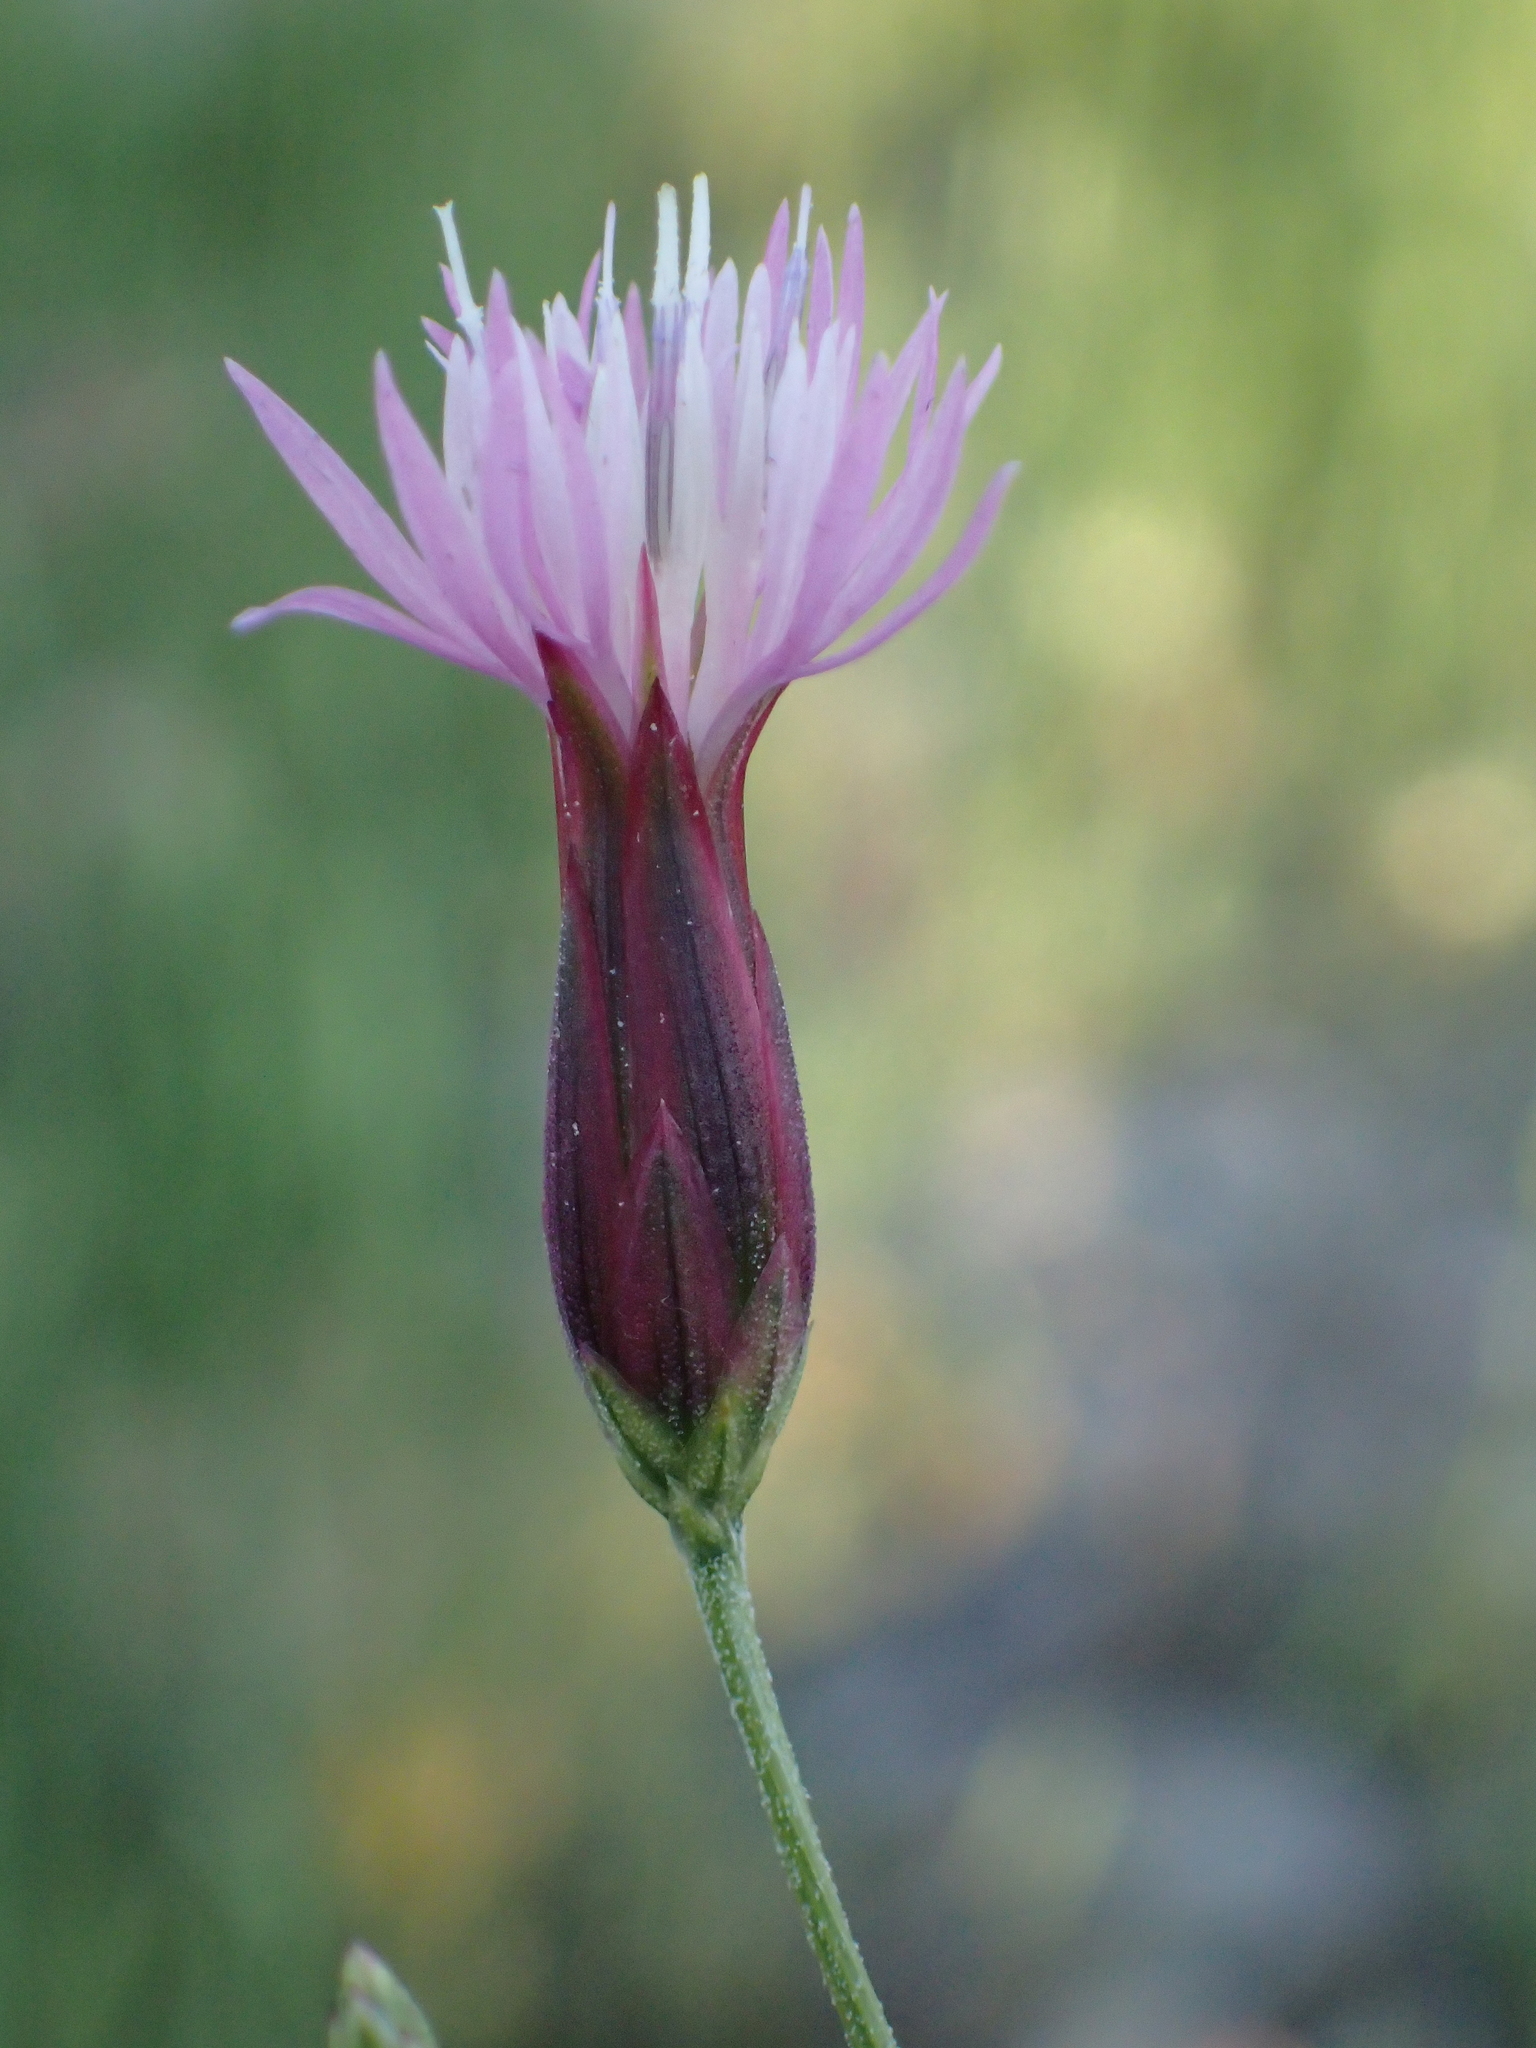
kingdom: Plantae
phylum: Tracheophyta
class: Magnoliopsida
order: Asterales
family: Asteraceae
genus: Crupina
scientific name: Crupina vulgaris
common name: Common crupina
